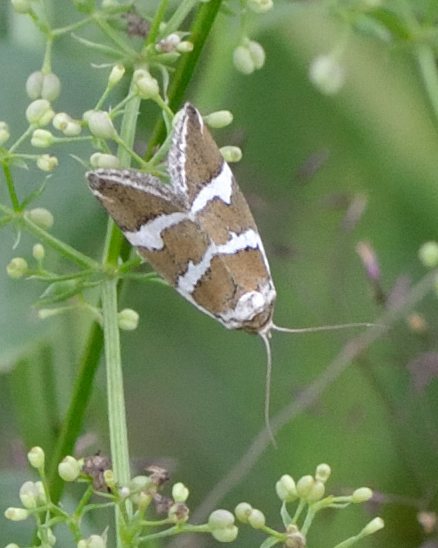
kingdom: Animalia
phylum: Arthropoda
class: Insecta
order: Lepidoptera
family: Noctuidae
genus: Deltote
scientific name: Deltote bankiana
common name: Silver barred
